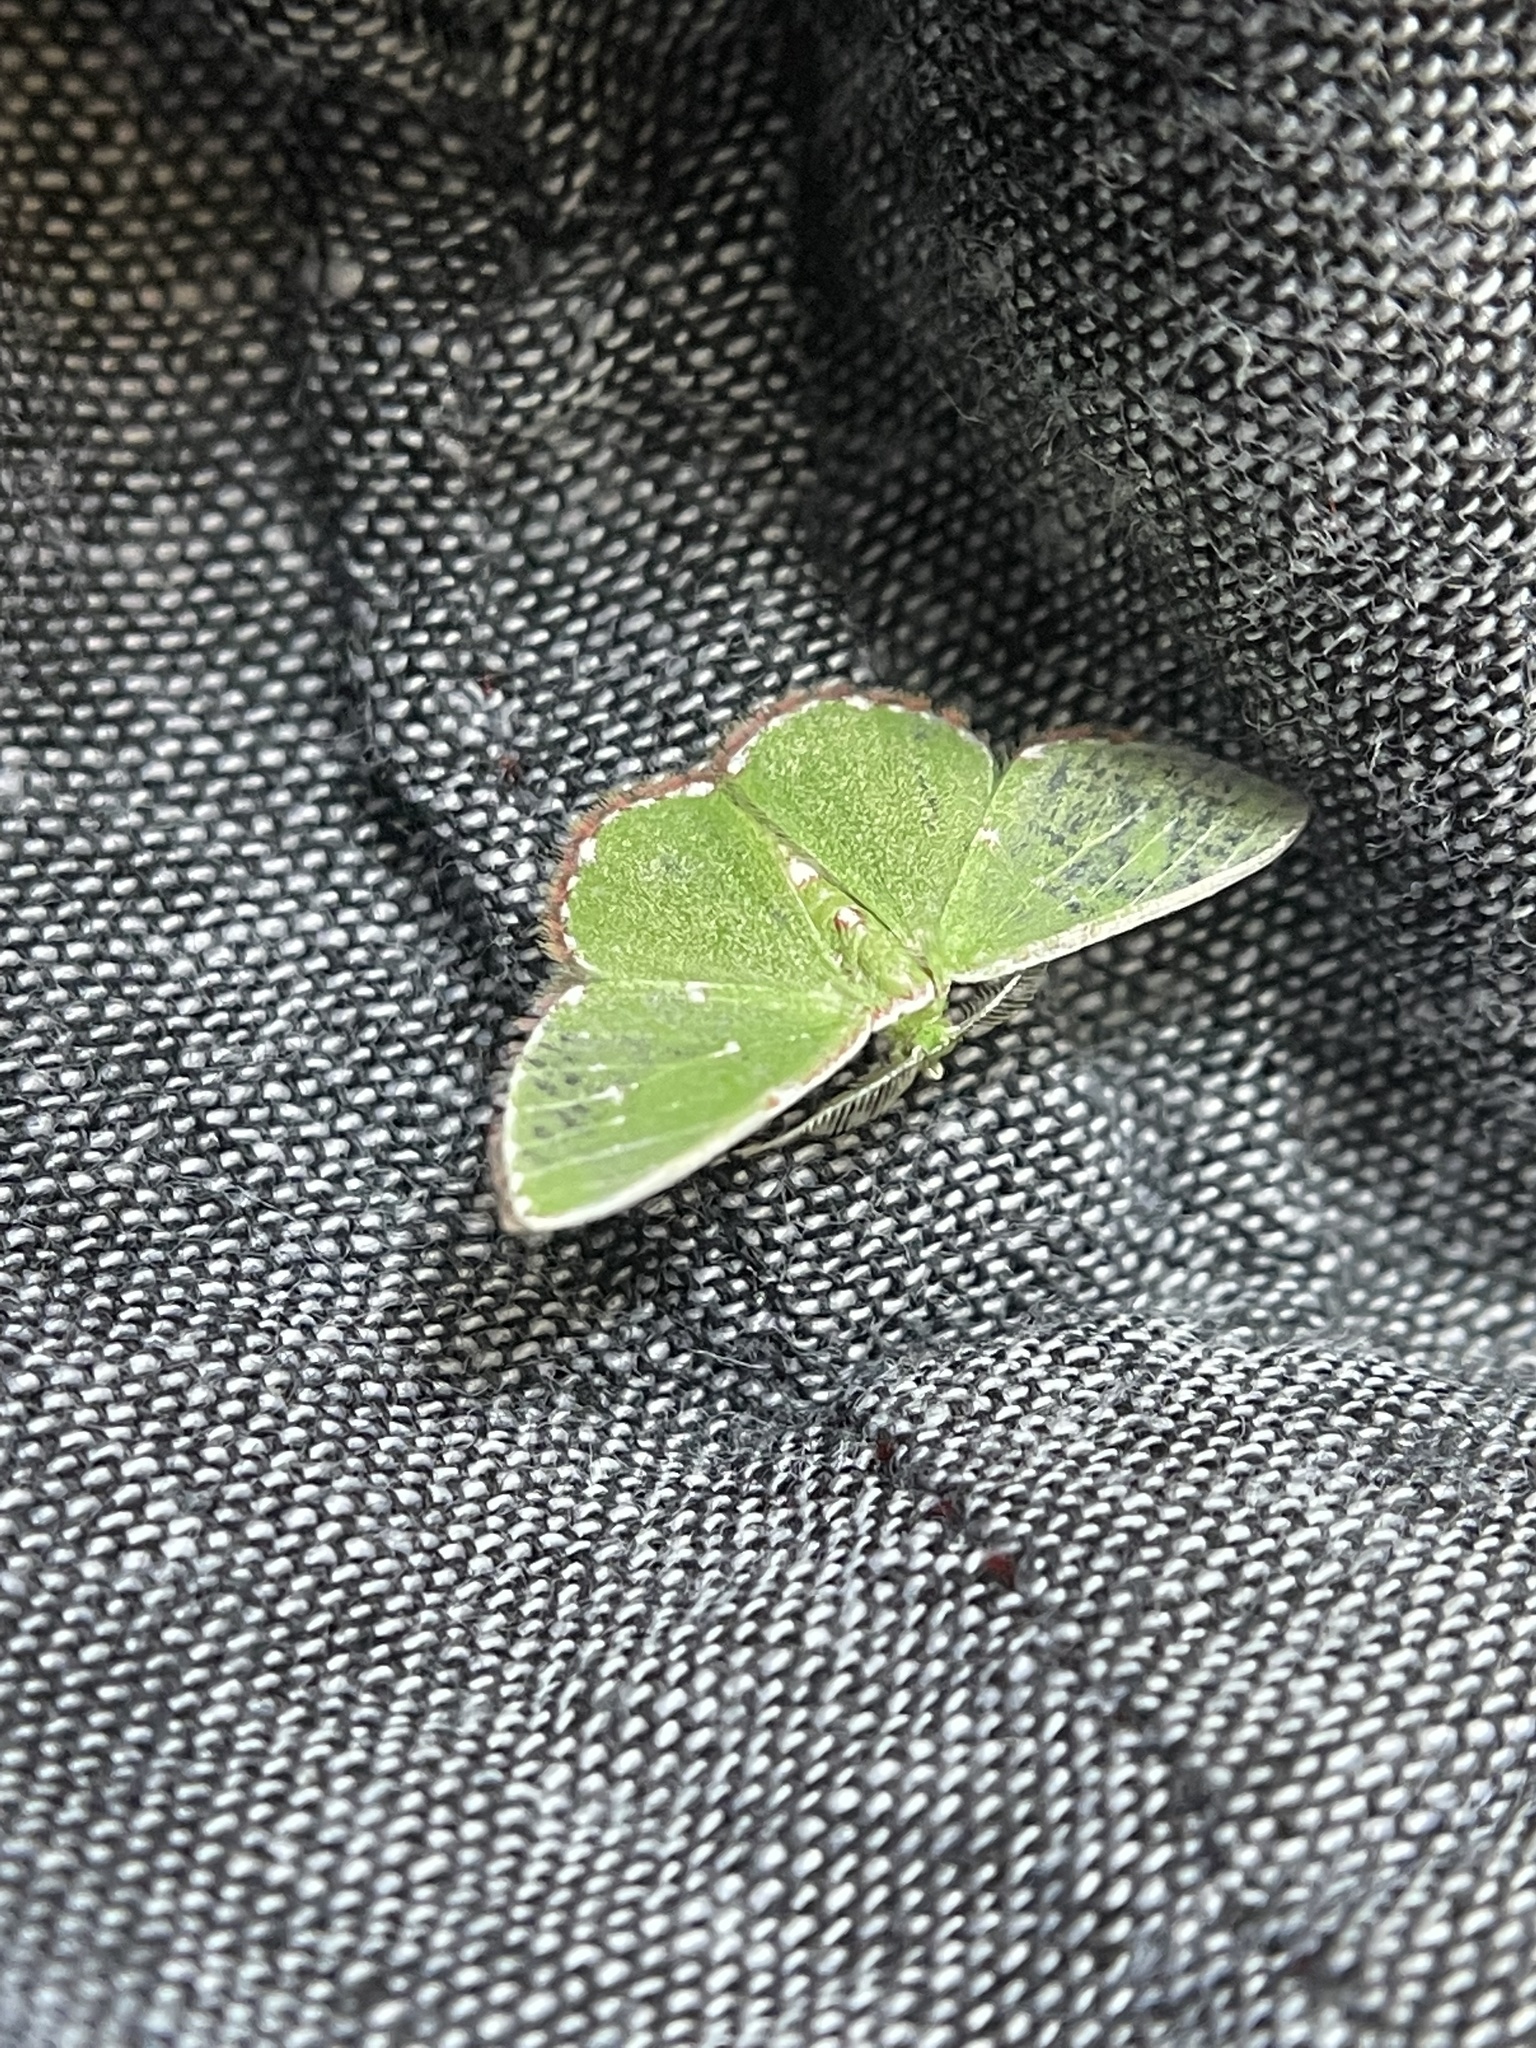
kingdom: Animalia
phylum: Arthropoda
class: Insecta
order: Lepidoptera
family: Geometridae
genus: Argyrocosma
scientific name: Argyrocosma inductaria
